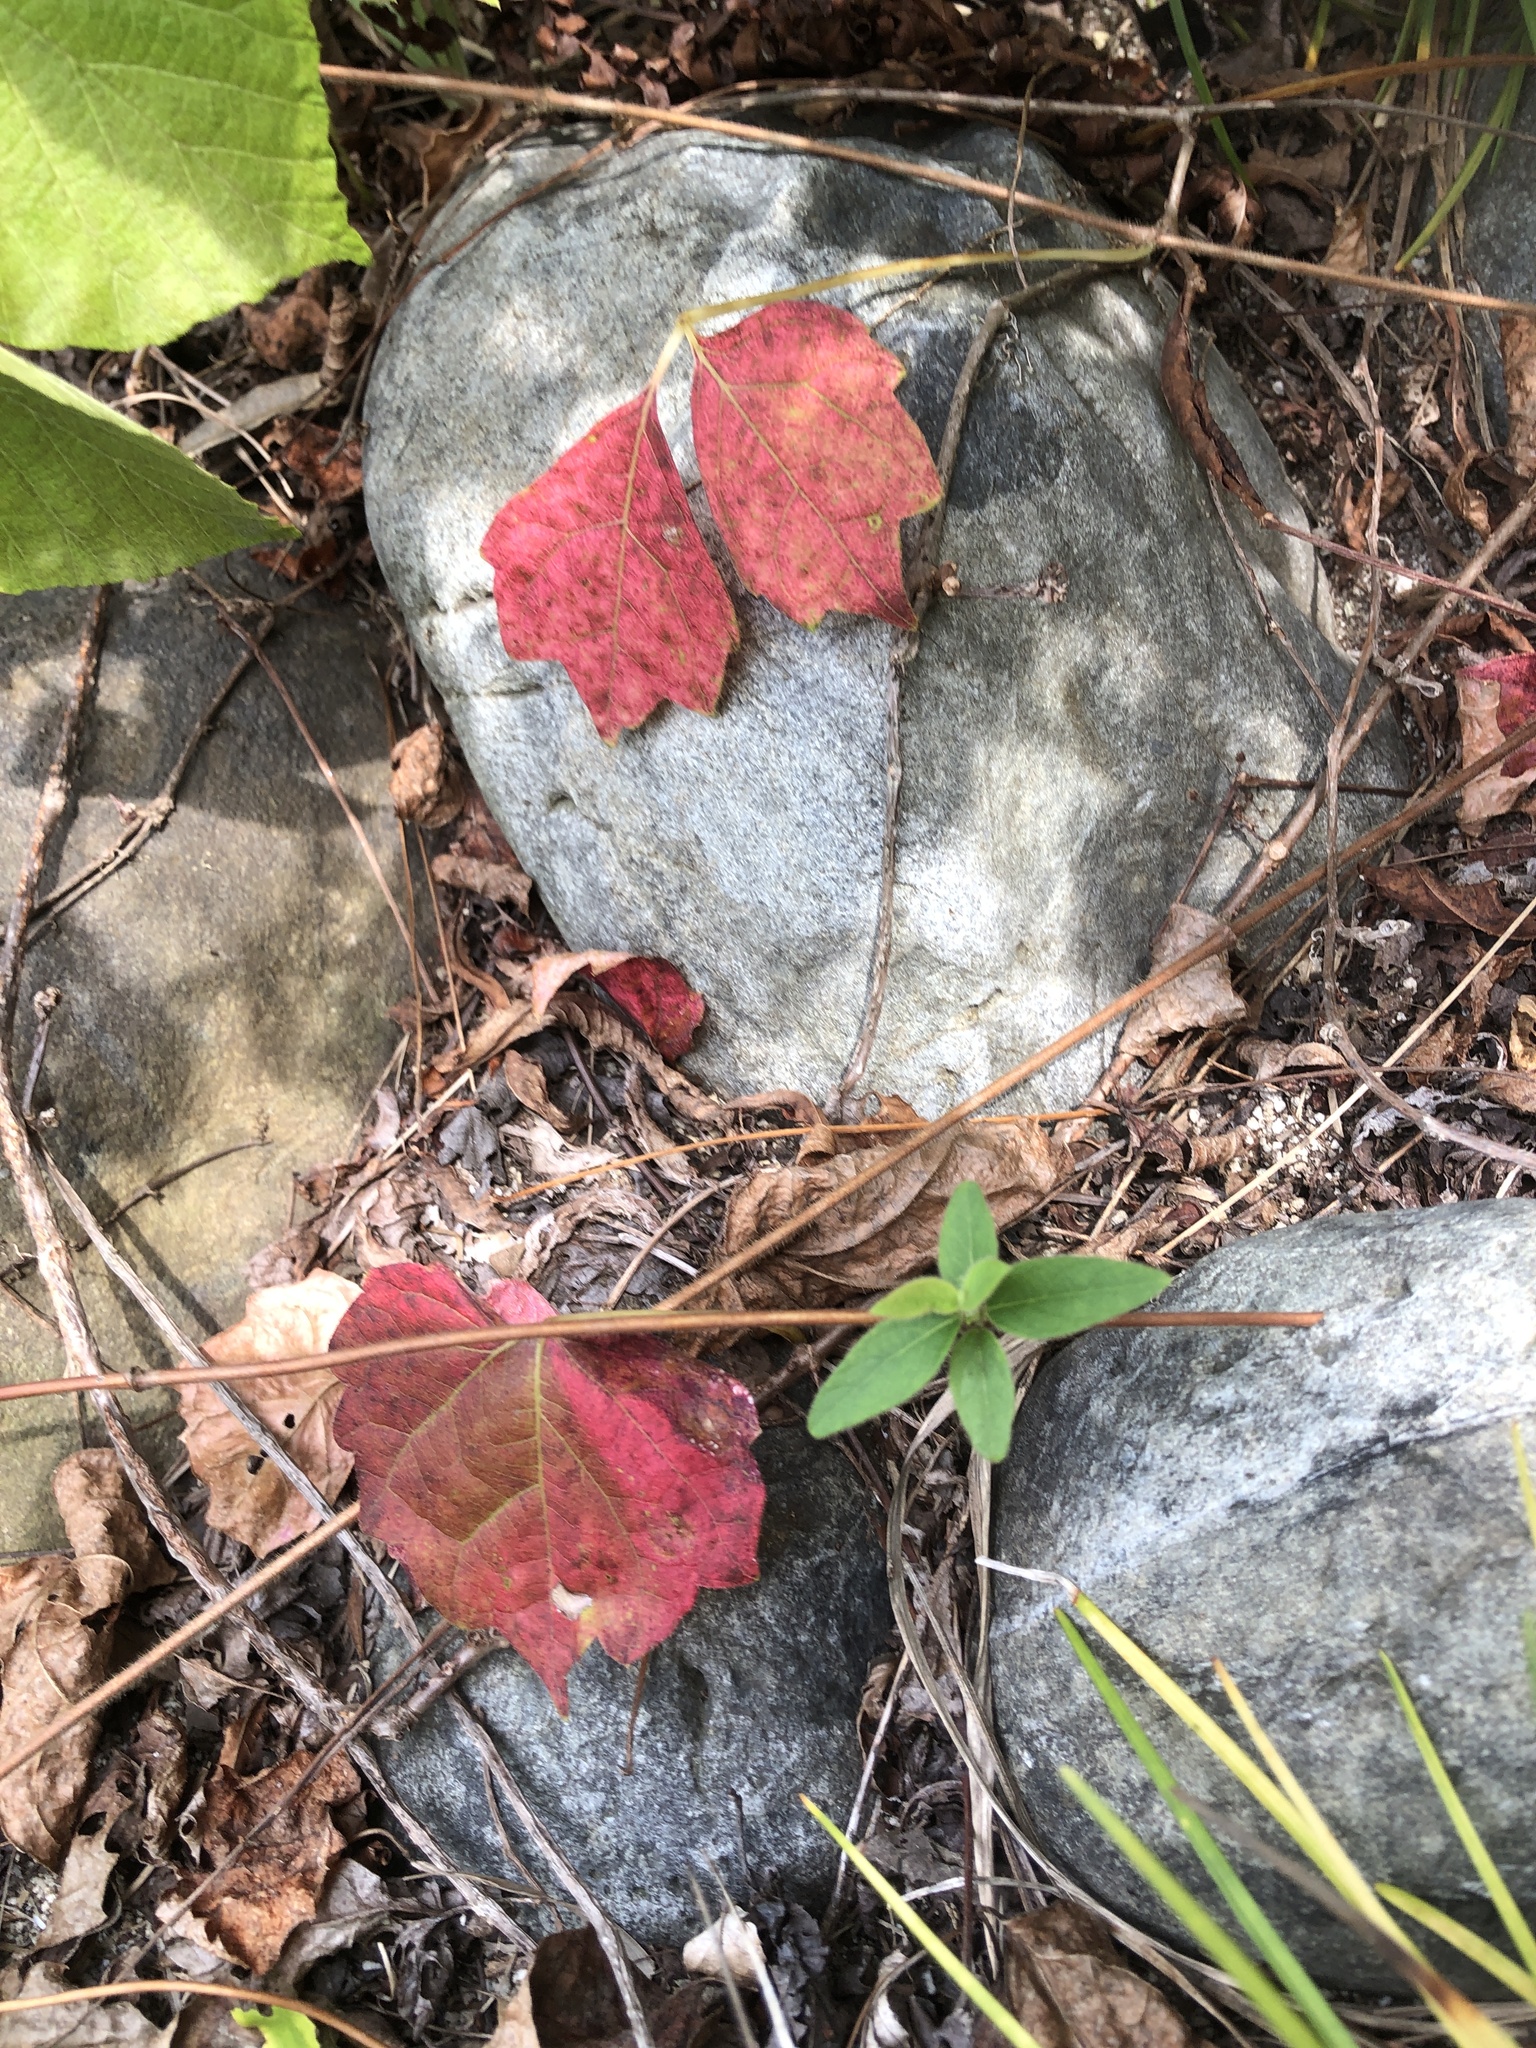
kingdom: Plantae
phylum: Tracheophyta
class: Magnoliopsida
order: Vitales
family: Vitaceae
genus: Parthenocissus
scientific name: Parthenocissus tricuspidata
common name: Boston ivy
